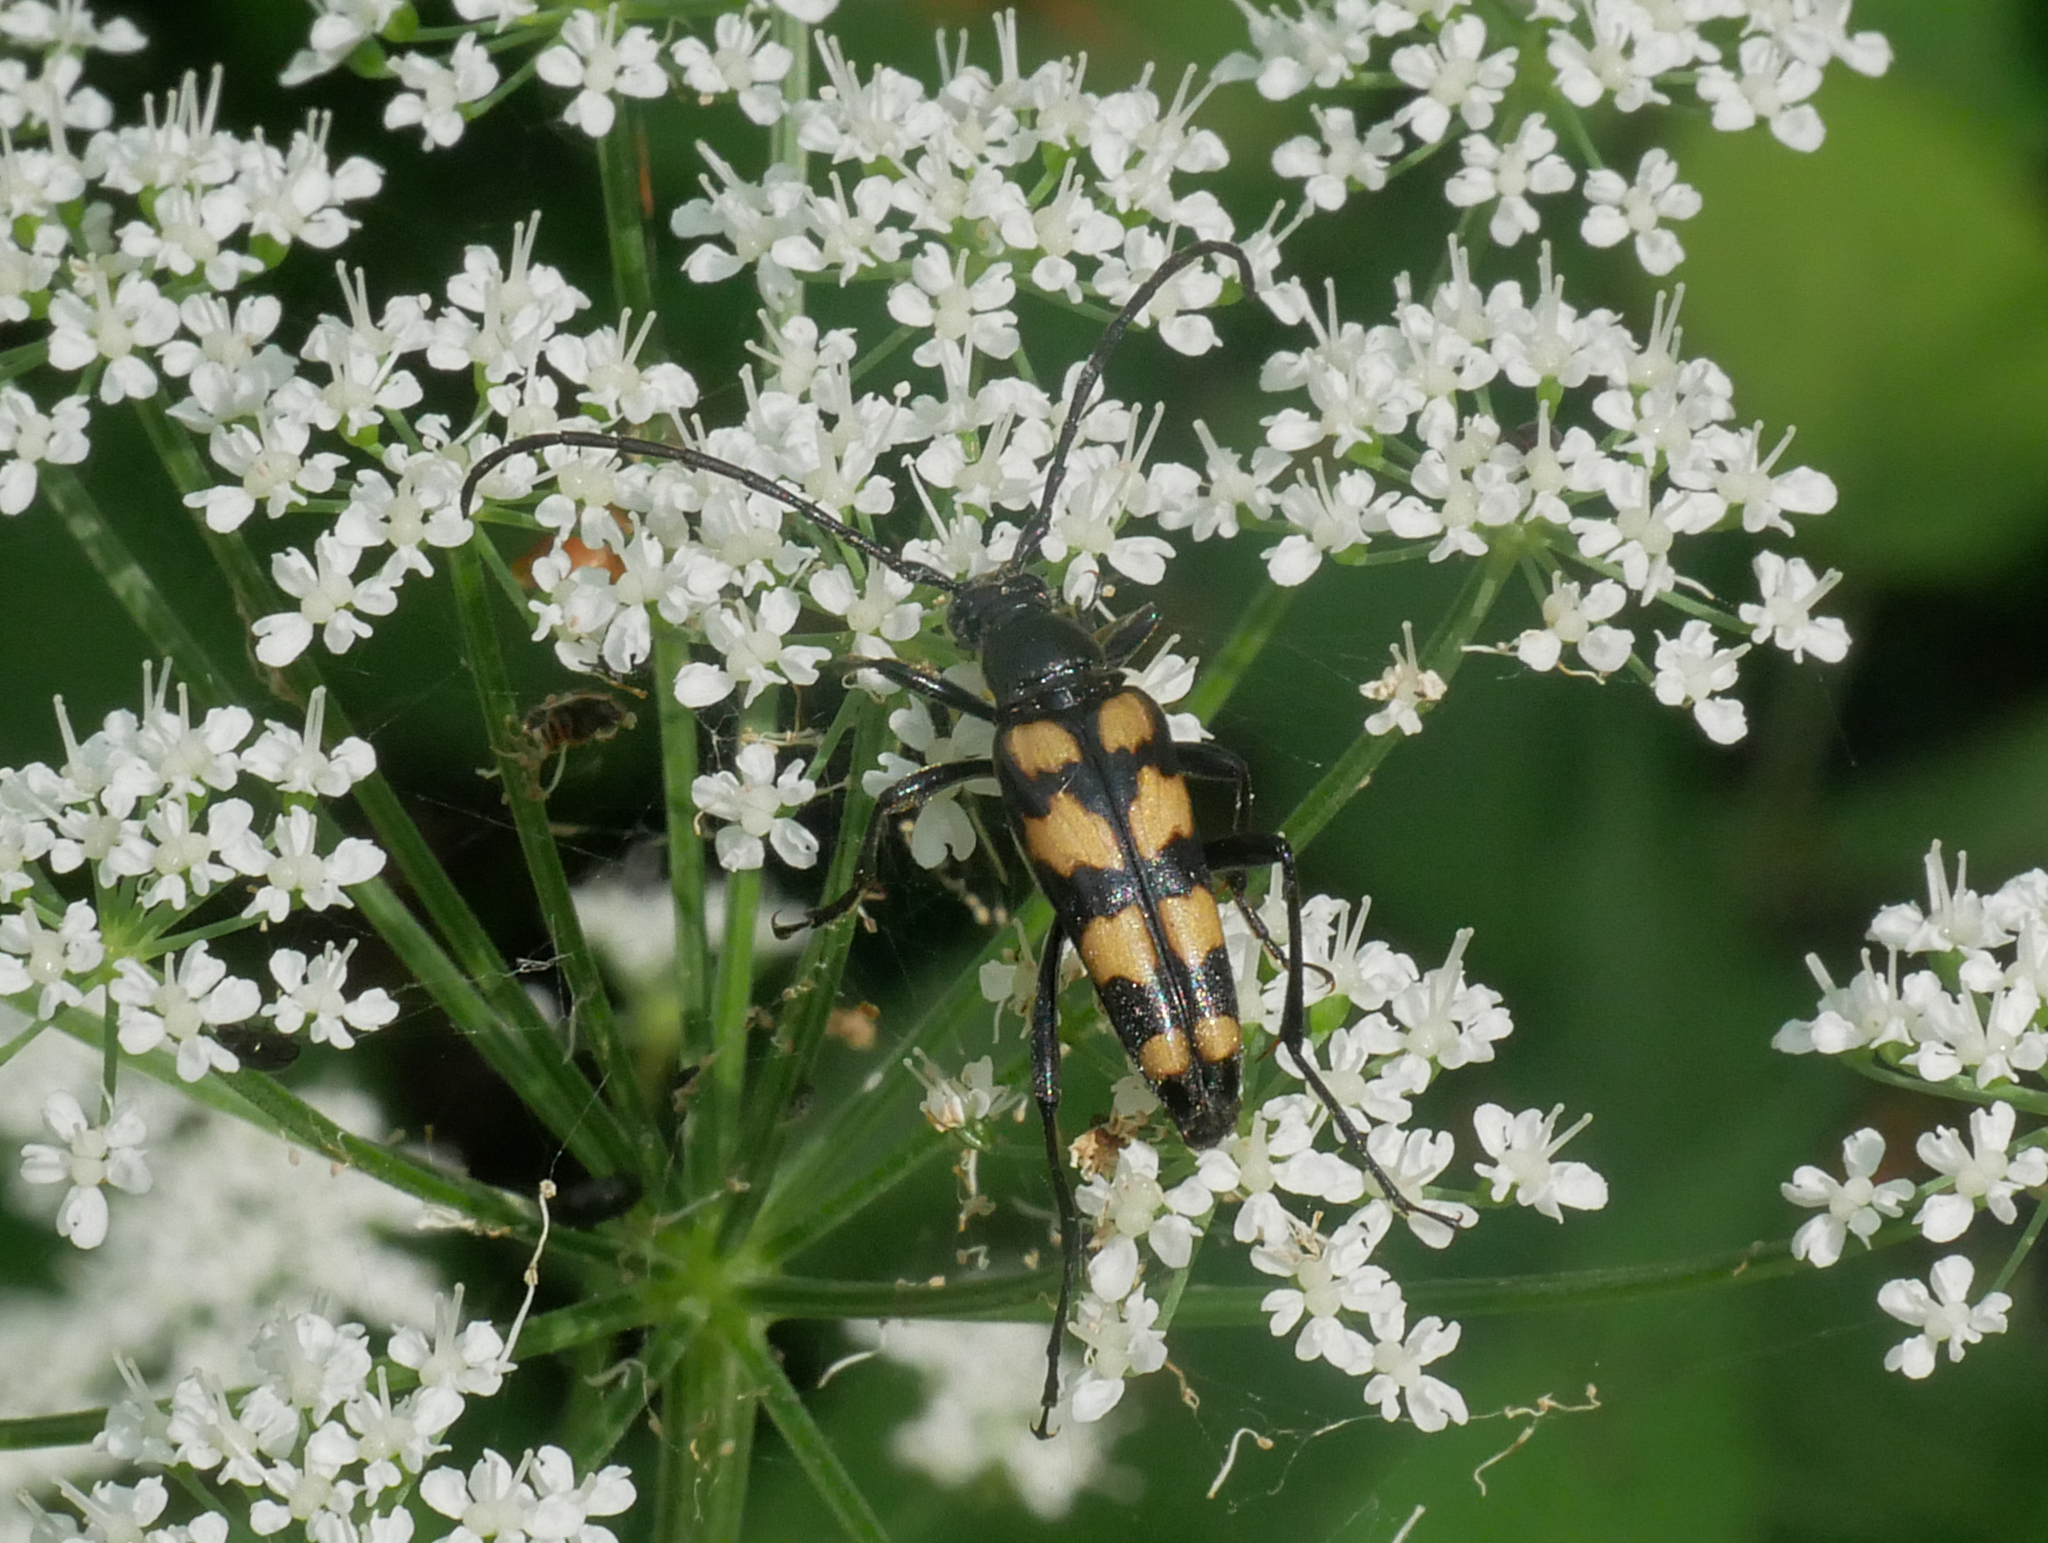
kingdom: Animalia
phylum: Arthropoda
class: Insecta
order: Coleoptera
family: Cerambycidae
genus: Leptura
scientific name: Leptura quadrifasciata
